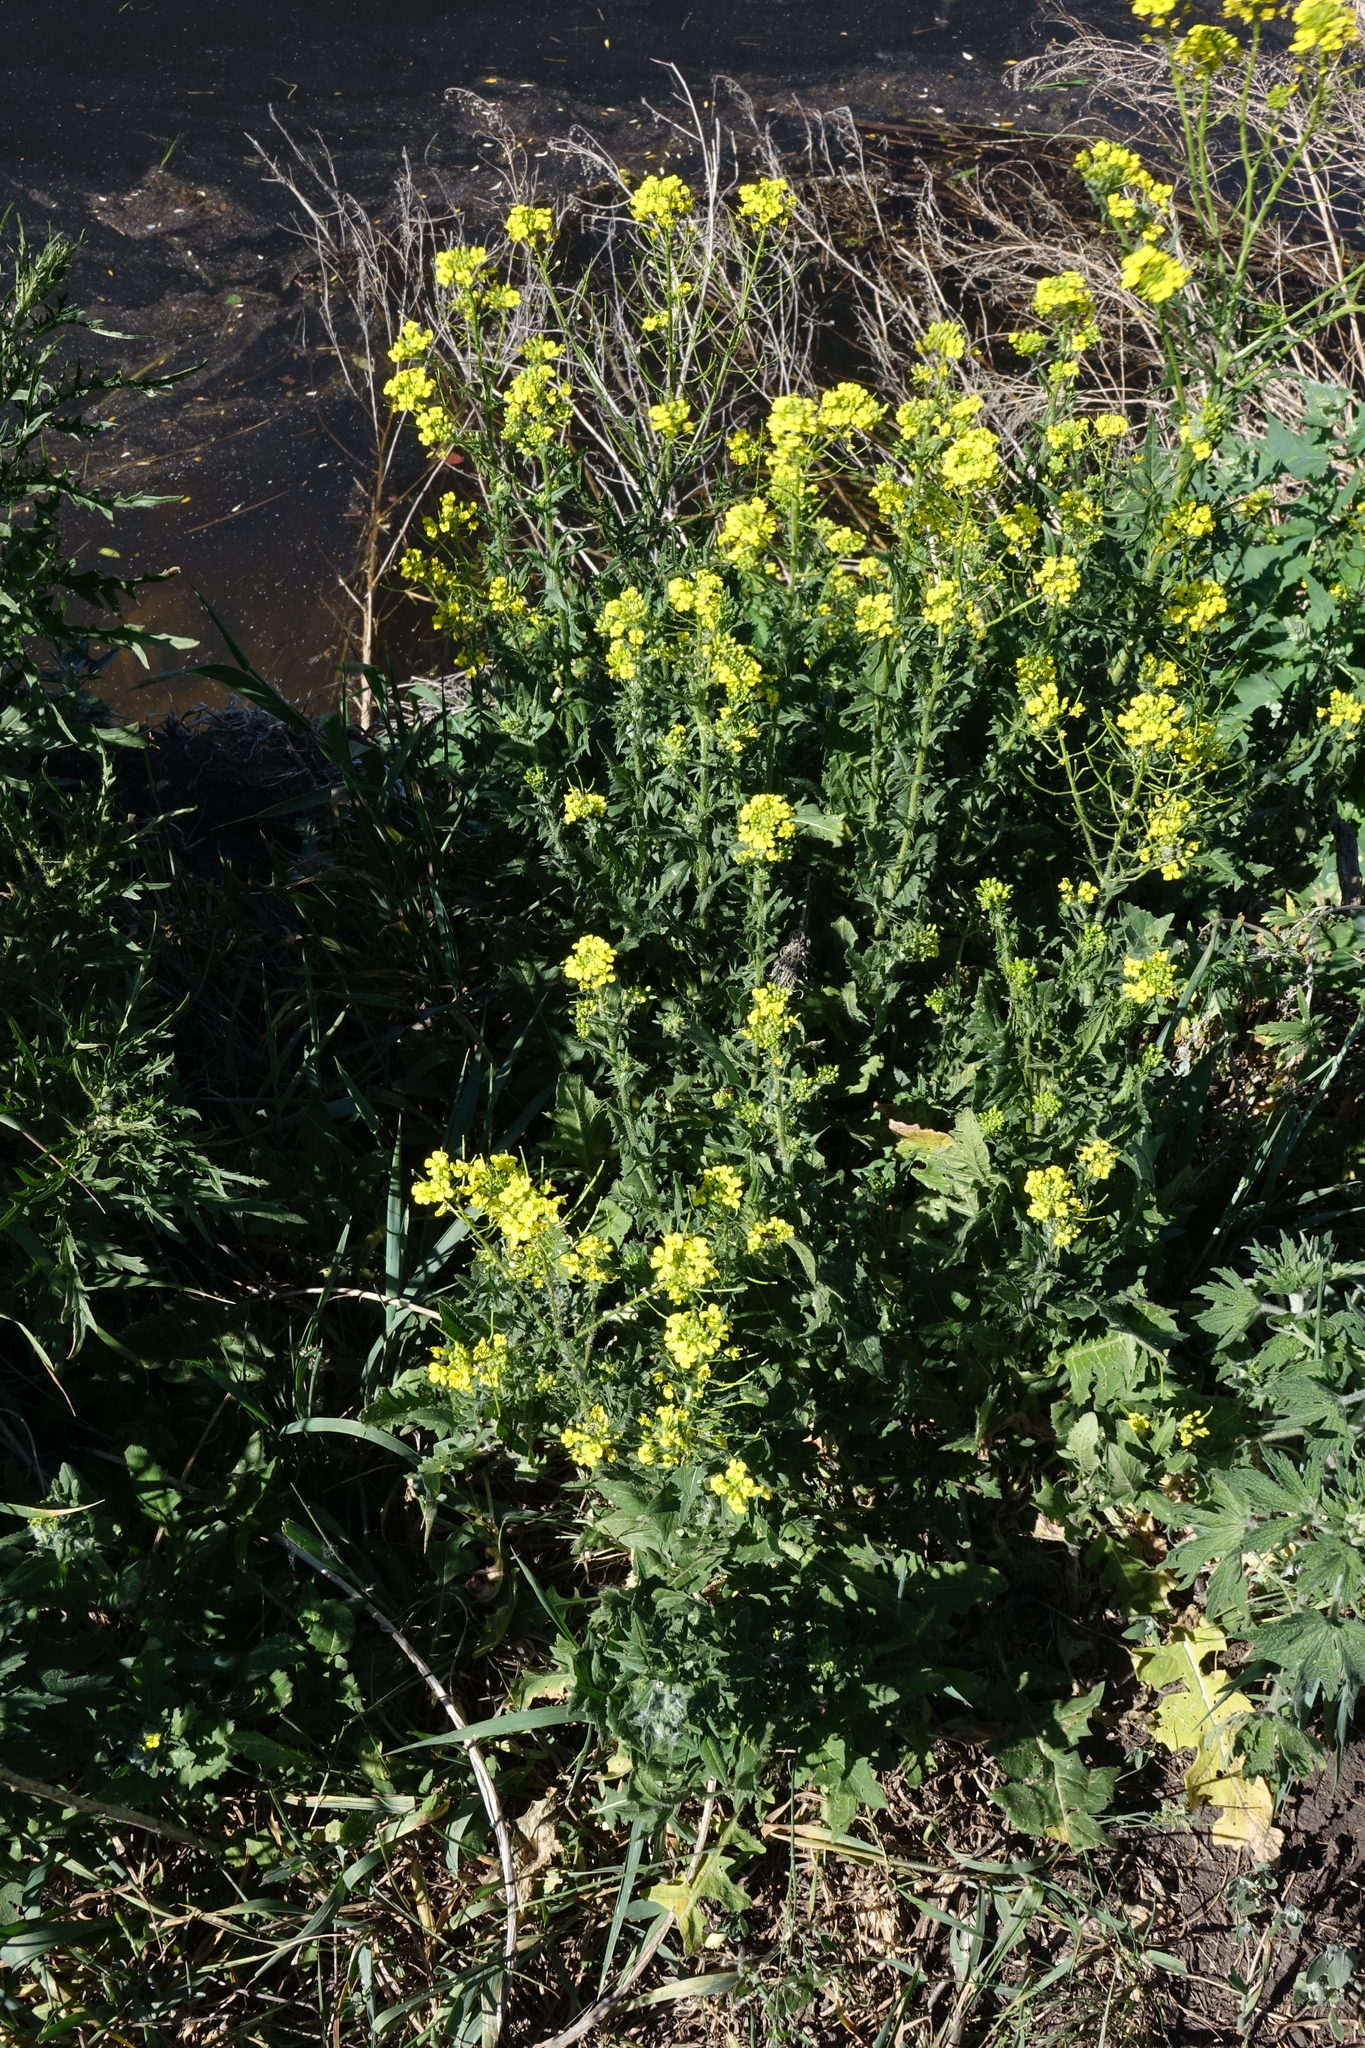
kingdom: Plantae
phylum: Tracheophyta
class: Magnoliopsida
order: Brassicales
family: Brassicaceae
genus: Sisymbrium
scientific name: Sisymbrium loeselii
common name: False london-rocket
